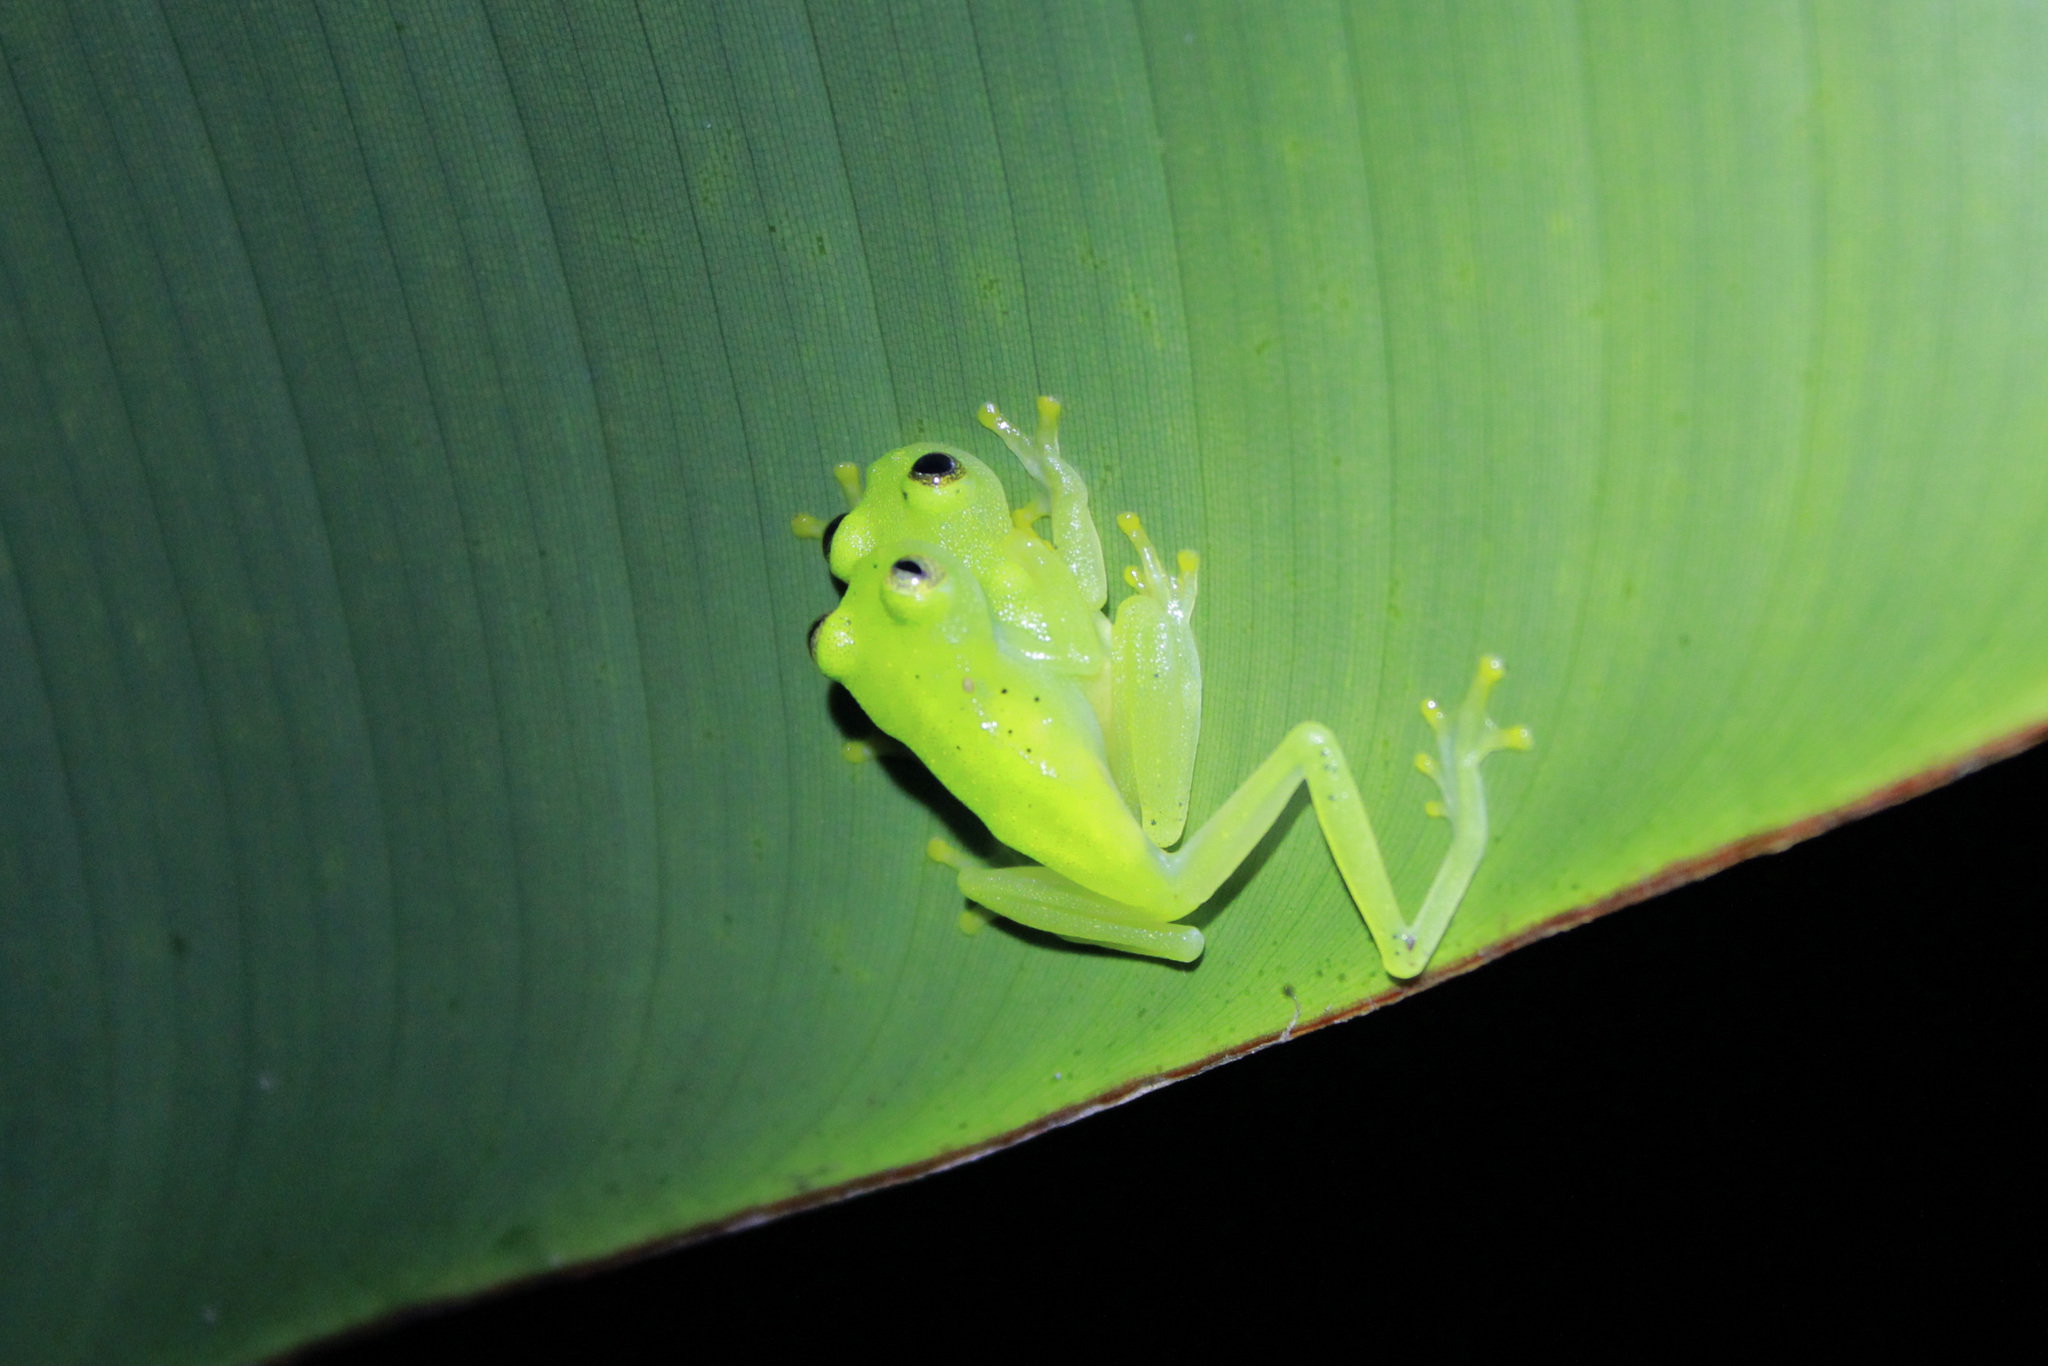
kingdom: Animalia
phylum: Chordata
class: Amphibia
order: Anura
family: Centrolenidae
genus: Hyalinobatrachium
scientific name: Hyalinobatrachium orientale
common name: Eastern glass frog
